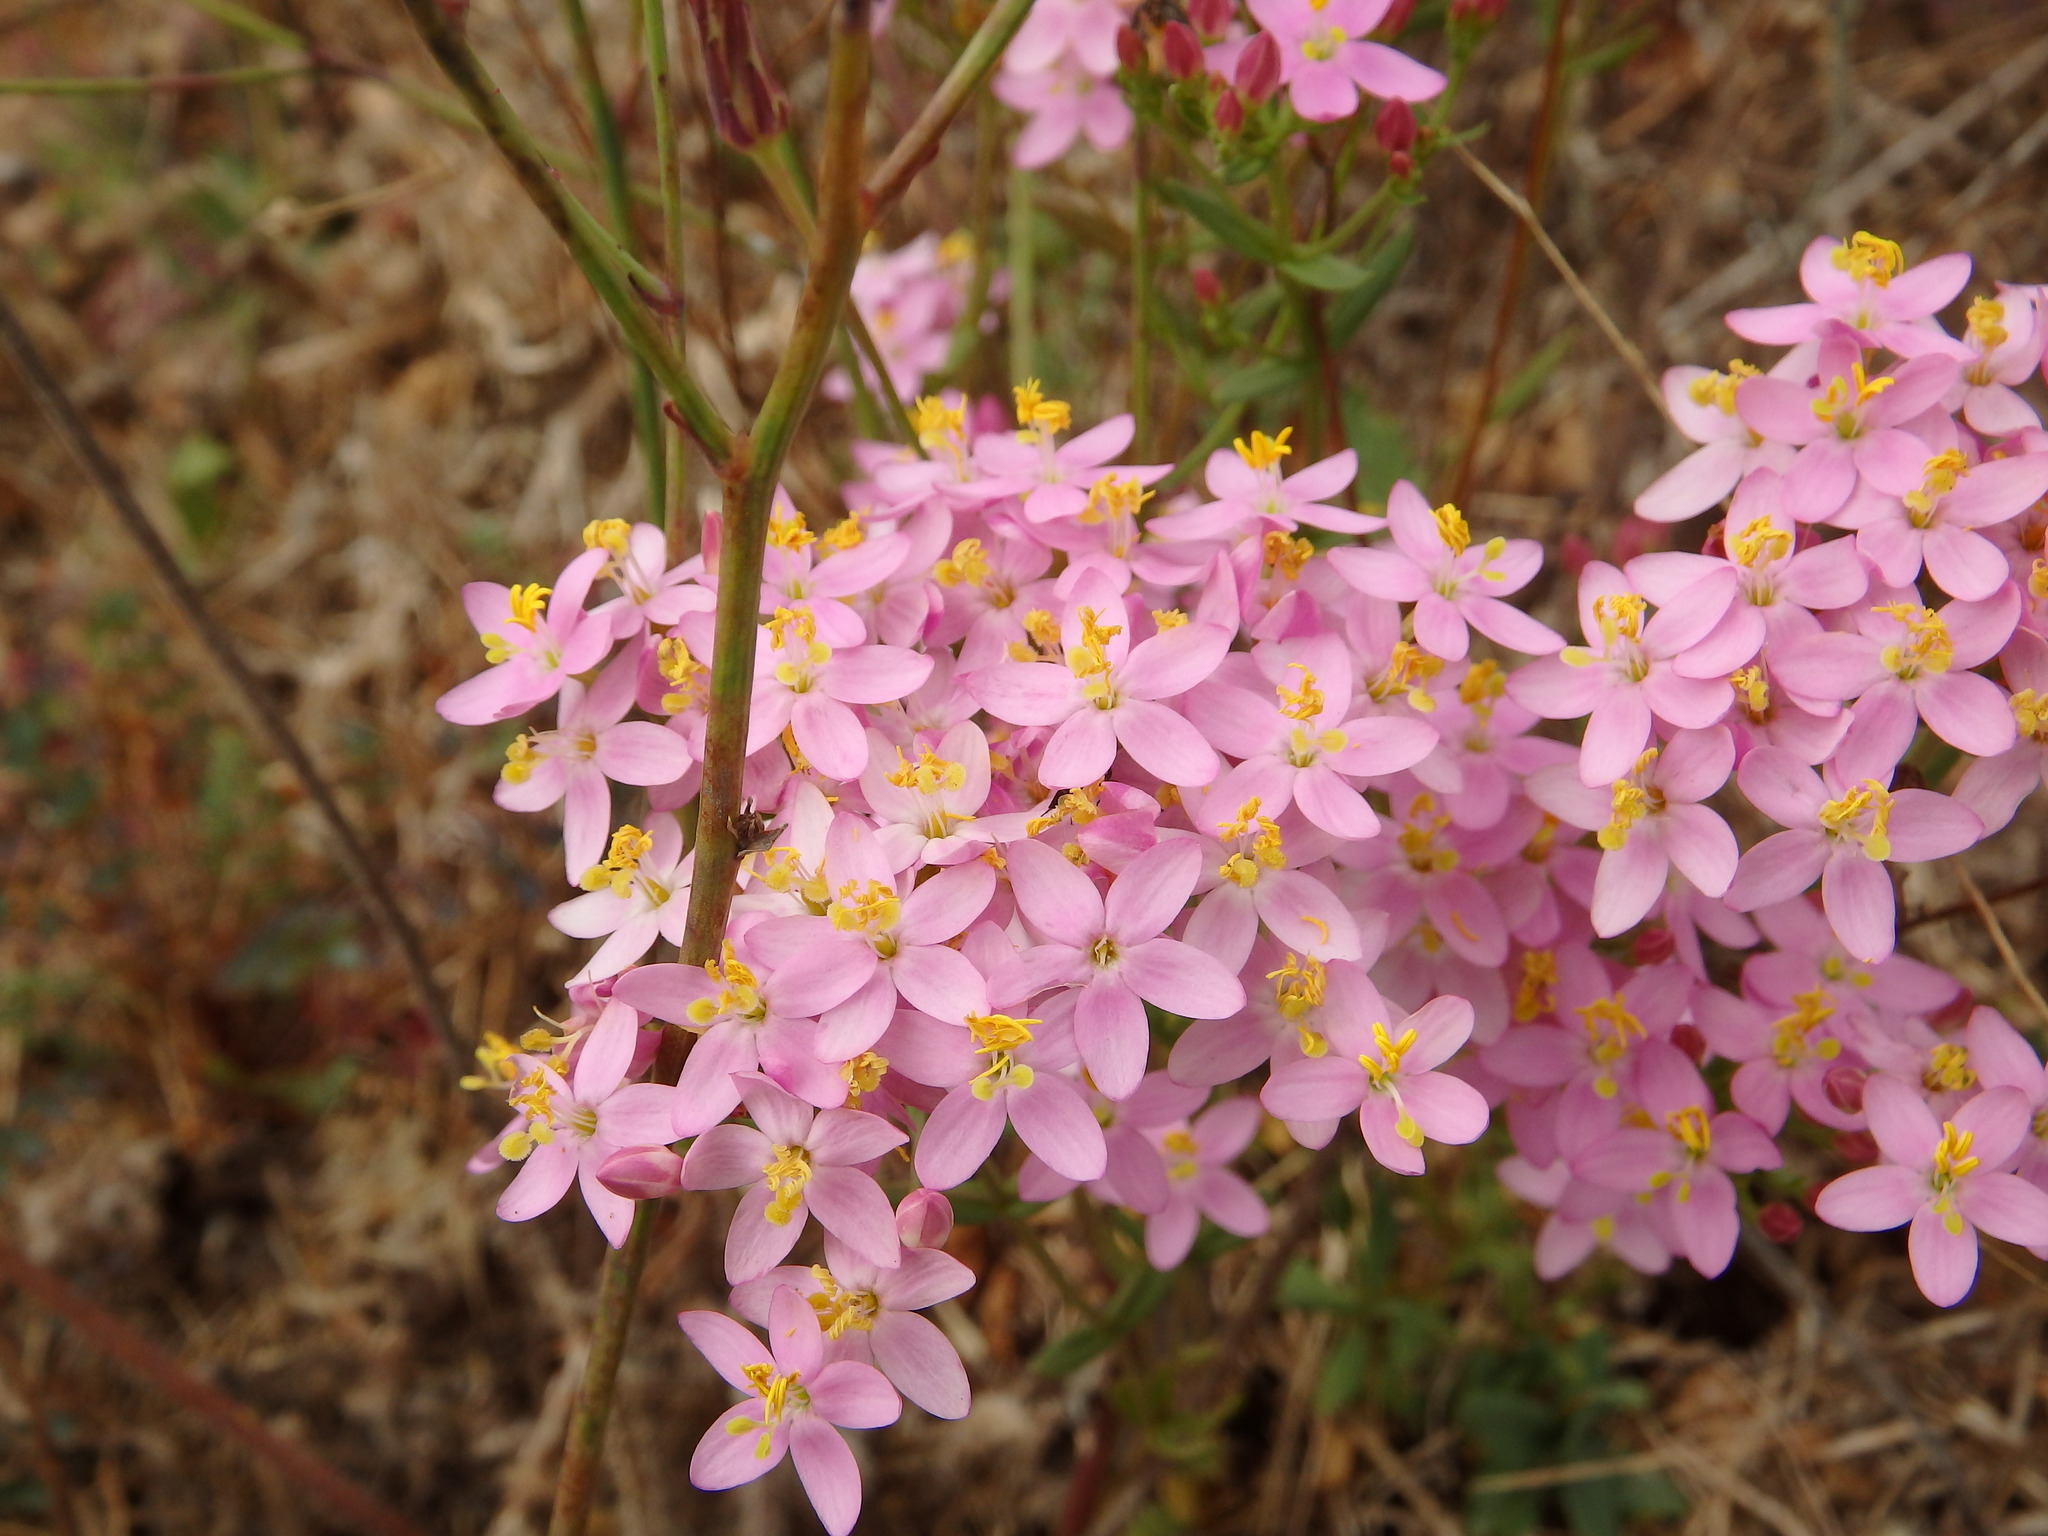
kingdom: Plantae
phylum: Tracheophyta
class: Magnoliopsida
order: Gentianales
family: Gentianaceae
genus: Centaurium
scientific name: Centaurium erythraea
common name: Common centaury
